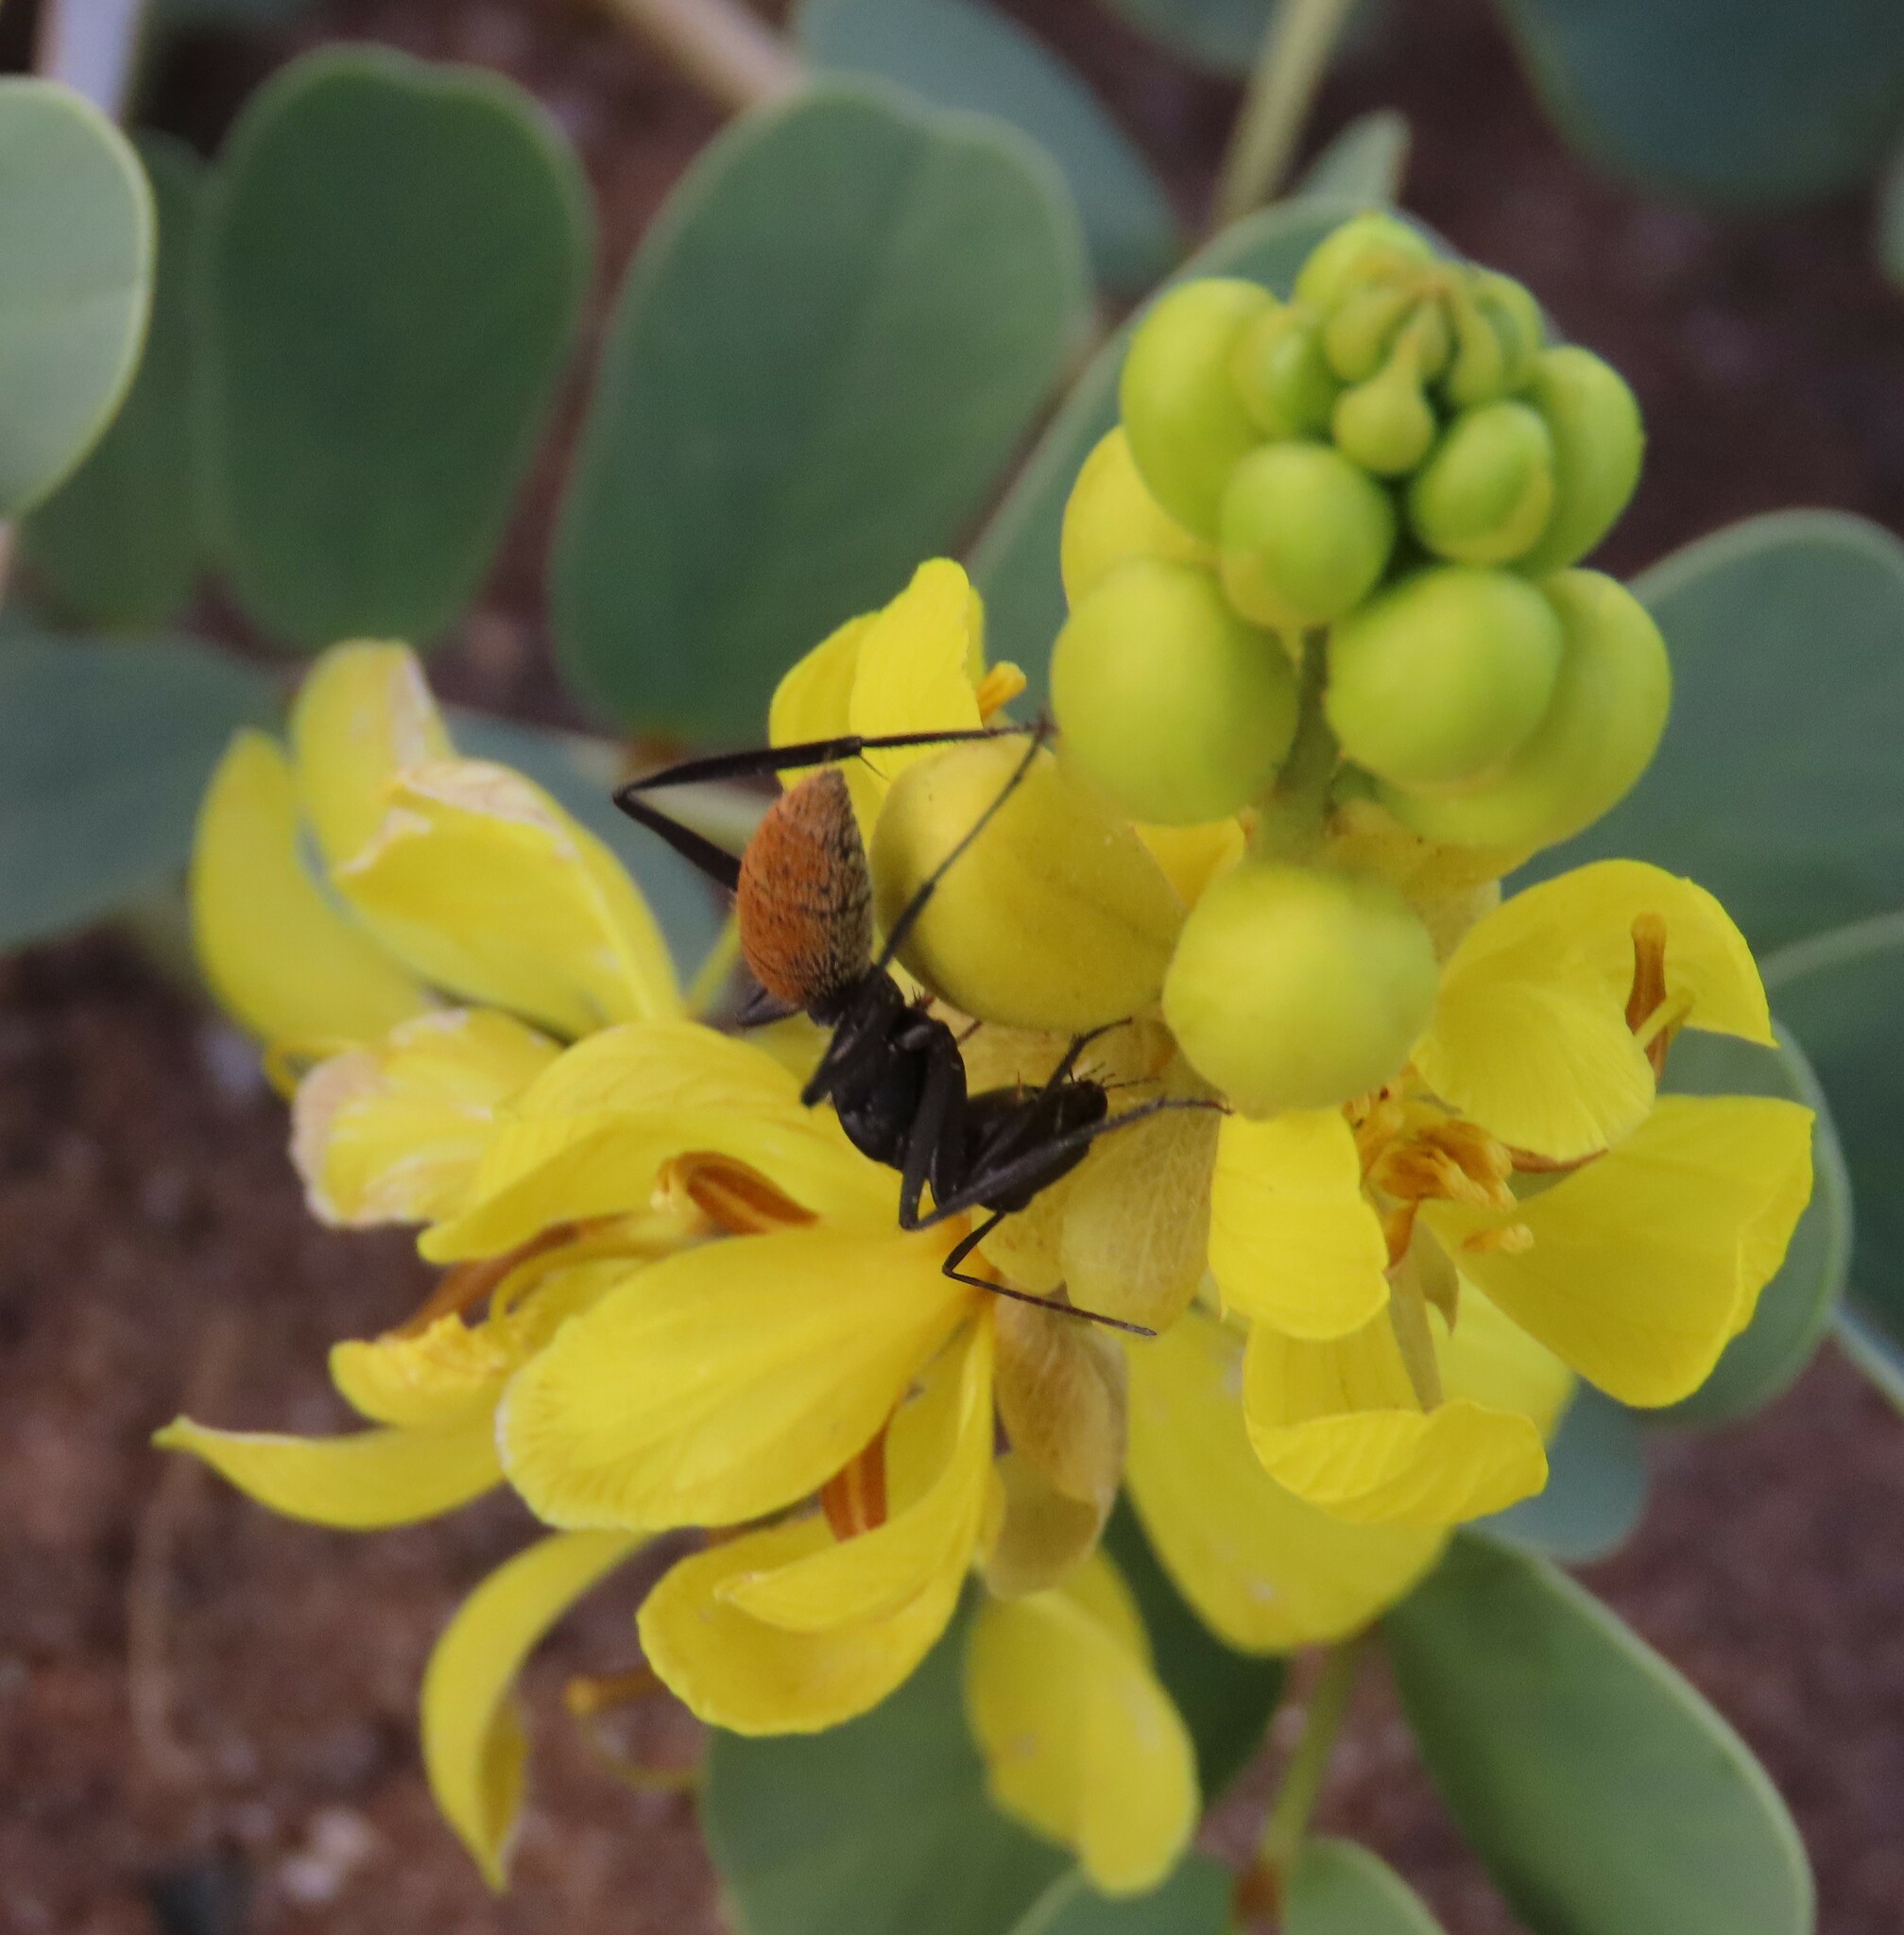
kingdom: Animalia
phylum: Arthropoda
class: Insecta
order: Hymenoptera
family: Formicidae
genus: Camponotus
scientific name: Camponotus fulvopilosus
